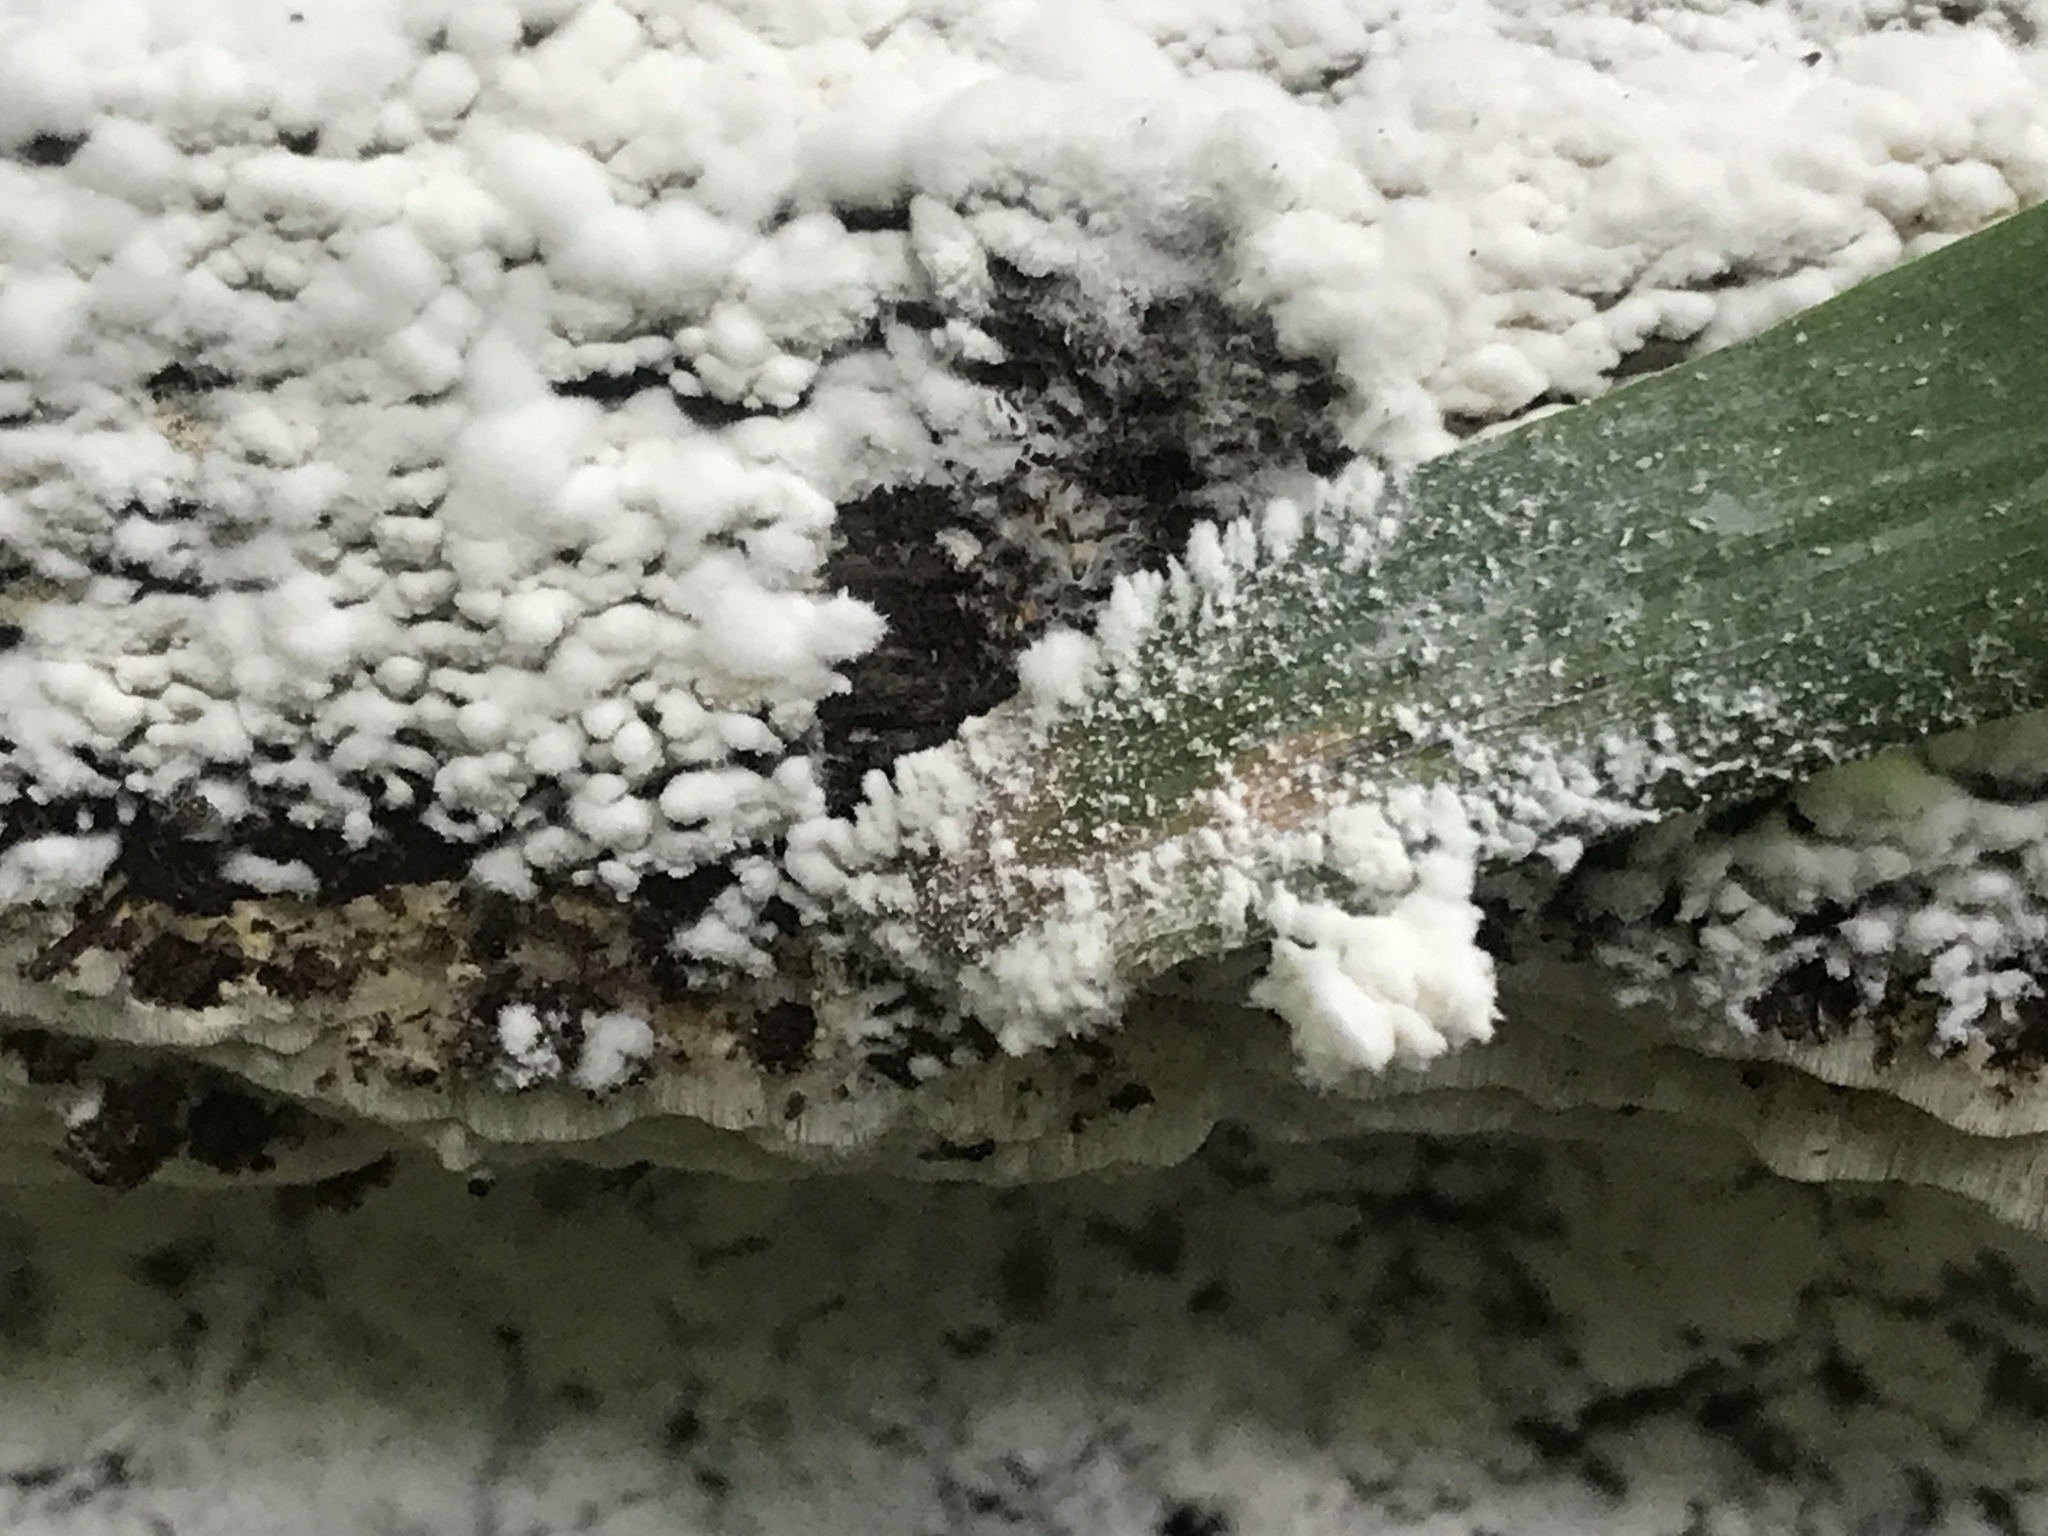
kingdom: Fungi
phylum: Basidiomycota
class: Agaricomycetes
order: Polyporales
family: Polyporaceae
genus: Yuchengia
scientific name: Yuchengia narymica
